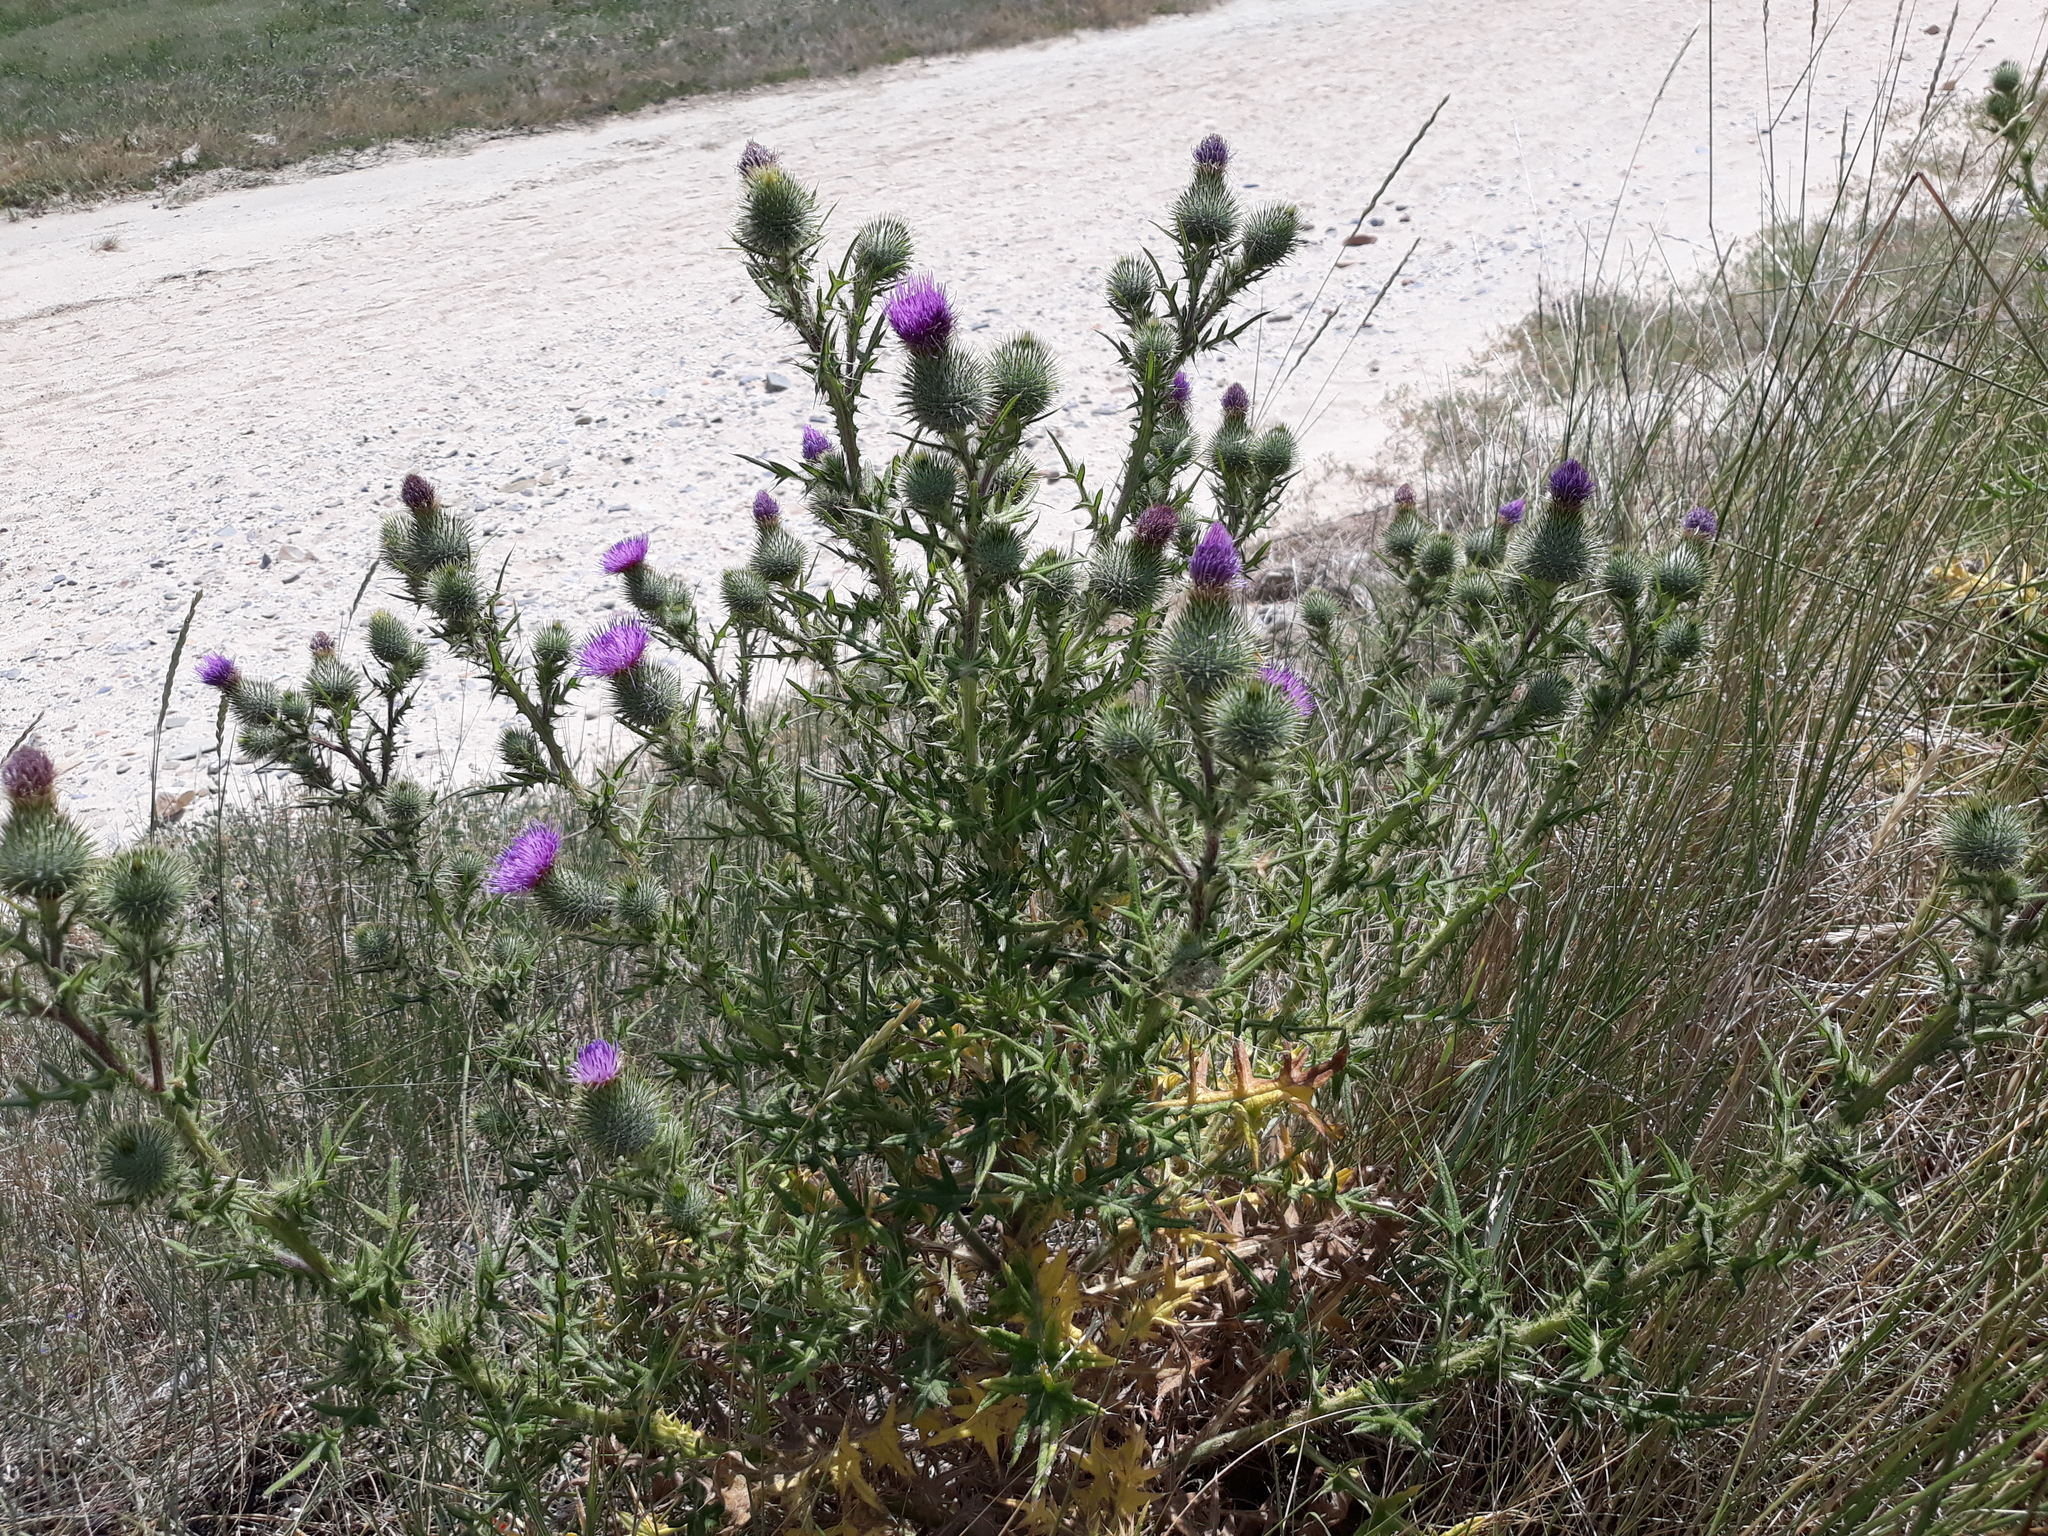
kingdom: Plantae
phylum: Tracheophyta
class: Magnoliopsida
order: Asterales
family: Asteraceae
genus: Cirsium
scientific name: Cirsium vulgare
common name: Bull thistle
